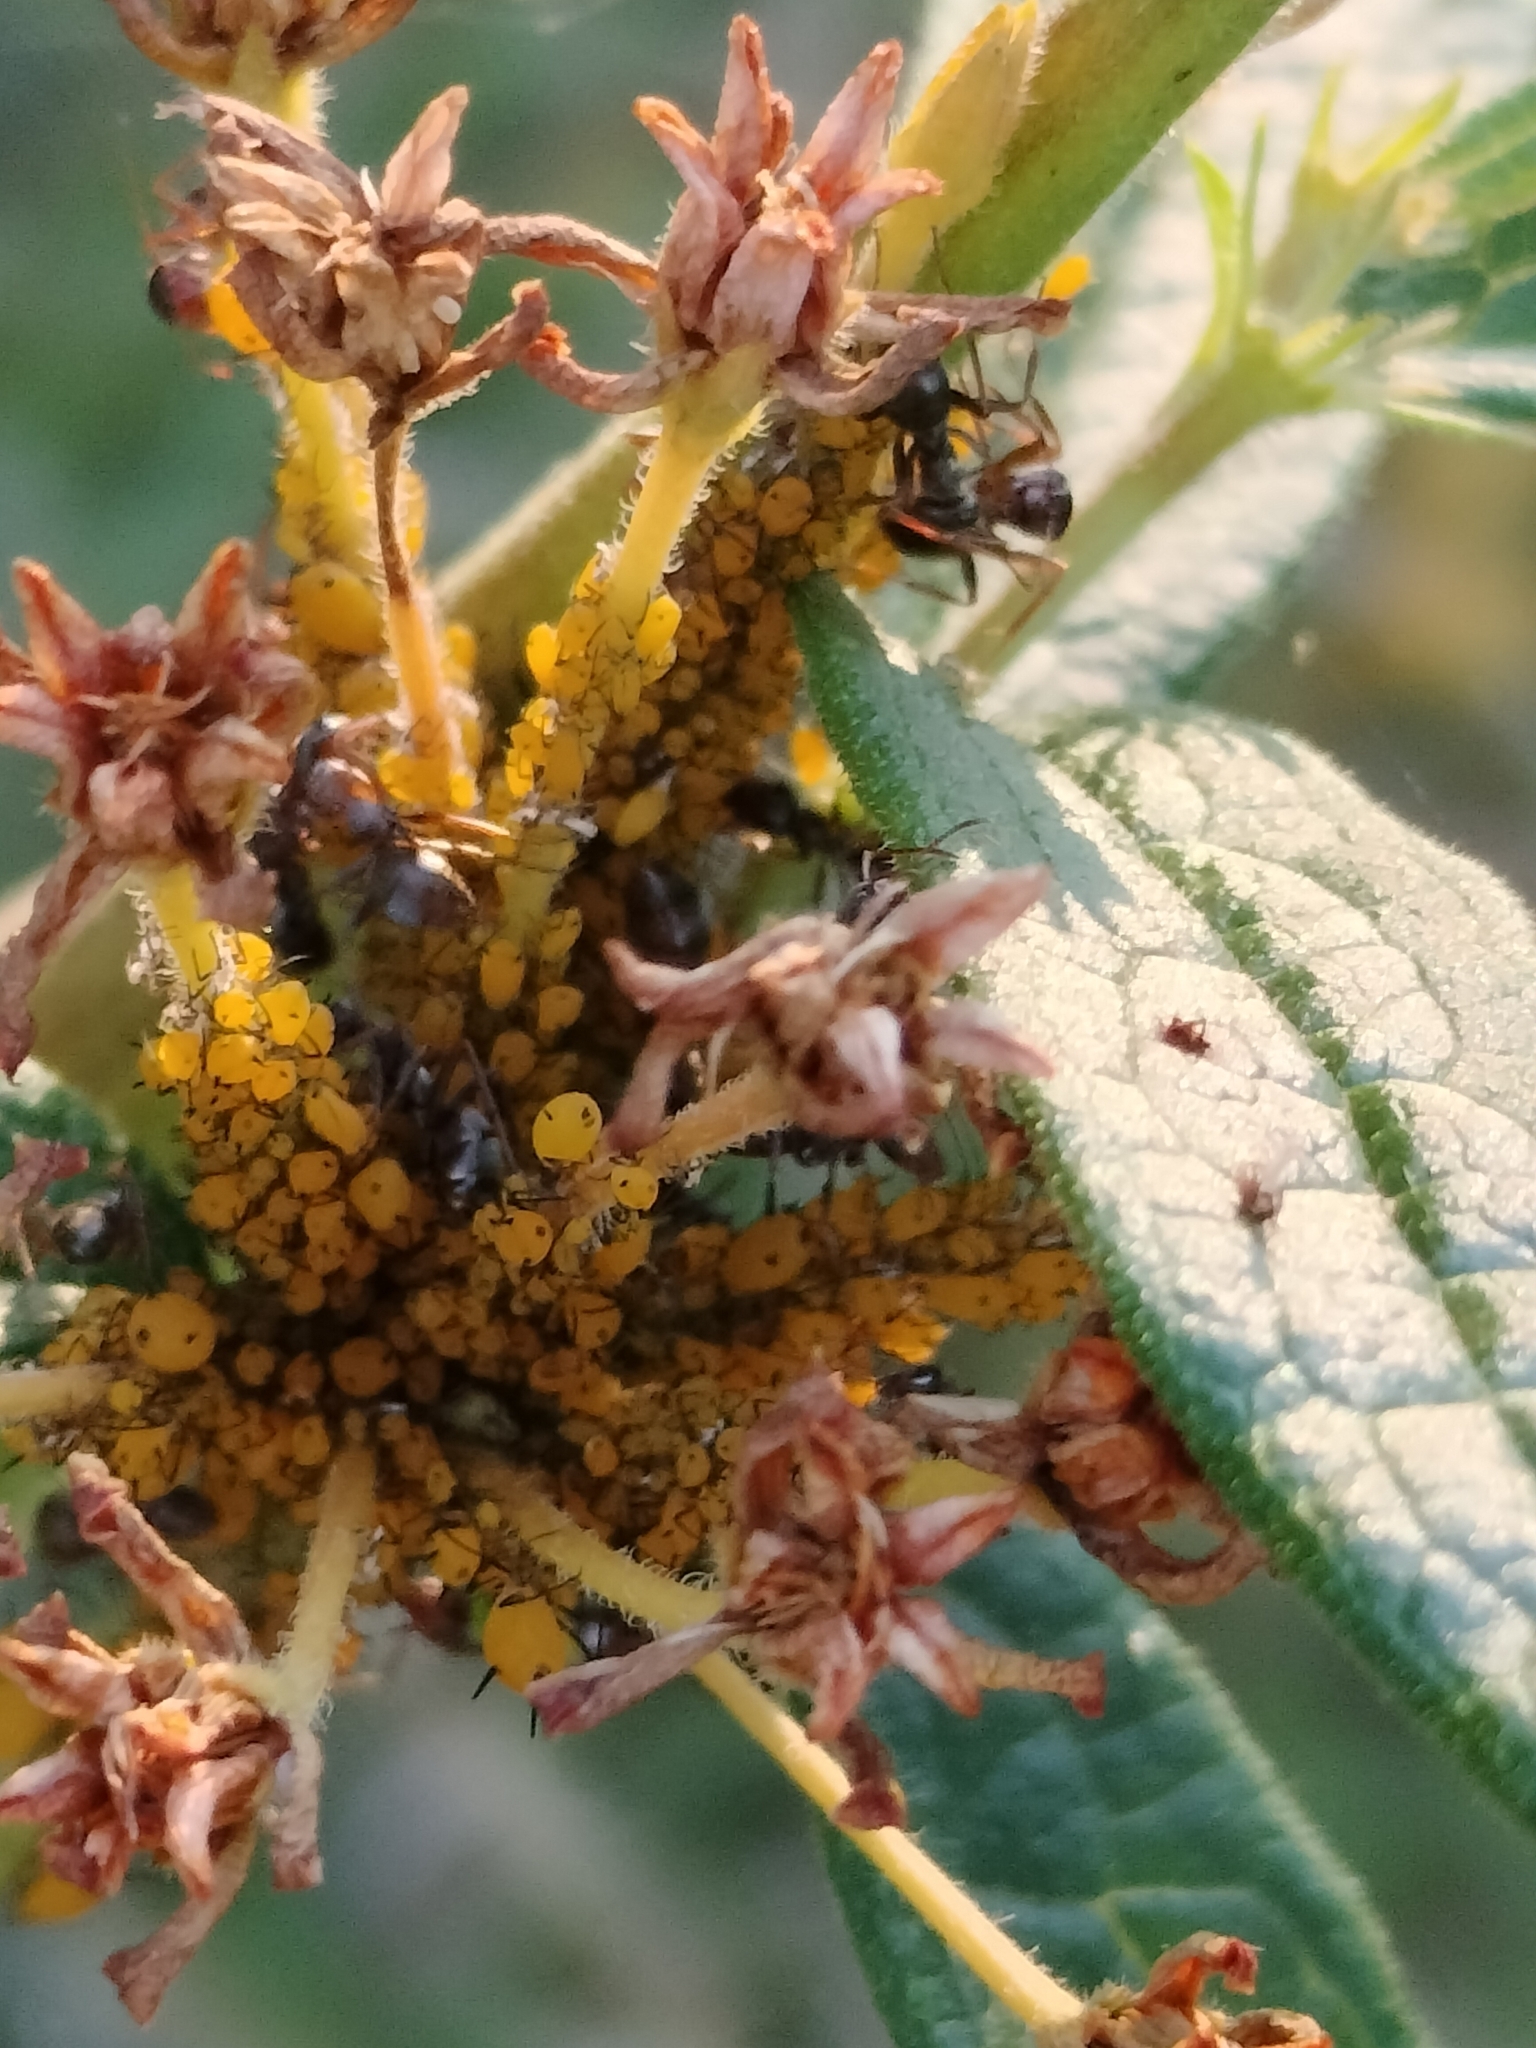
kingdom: Animalia
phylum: Arthropoda
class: Insecta
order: Hemiptera
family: Aphididae
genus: Aphis
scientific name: Aphis nerii
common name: Oleander aphid
